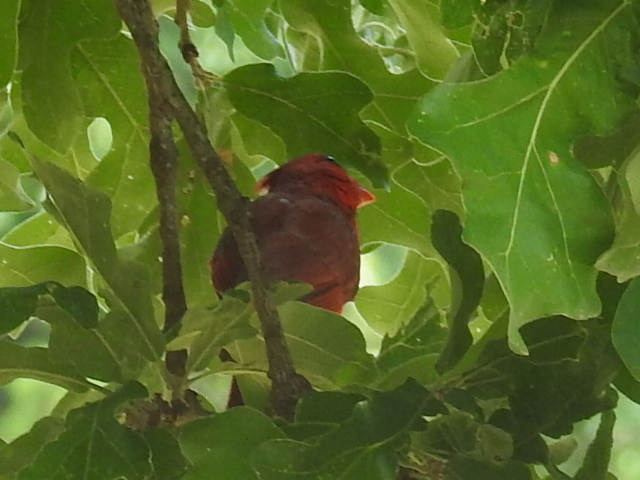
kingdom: Animalia
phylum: Chordata
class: Aves
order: Passeriformes
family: Cardinalidae
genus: Cardinalis
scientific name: Cardinalis cardinalis
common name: Northern cardinal
